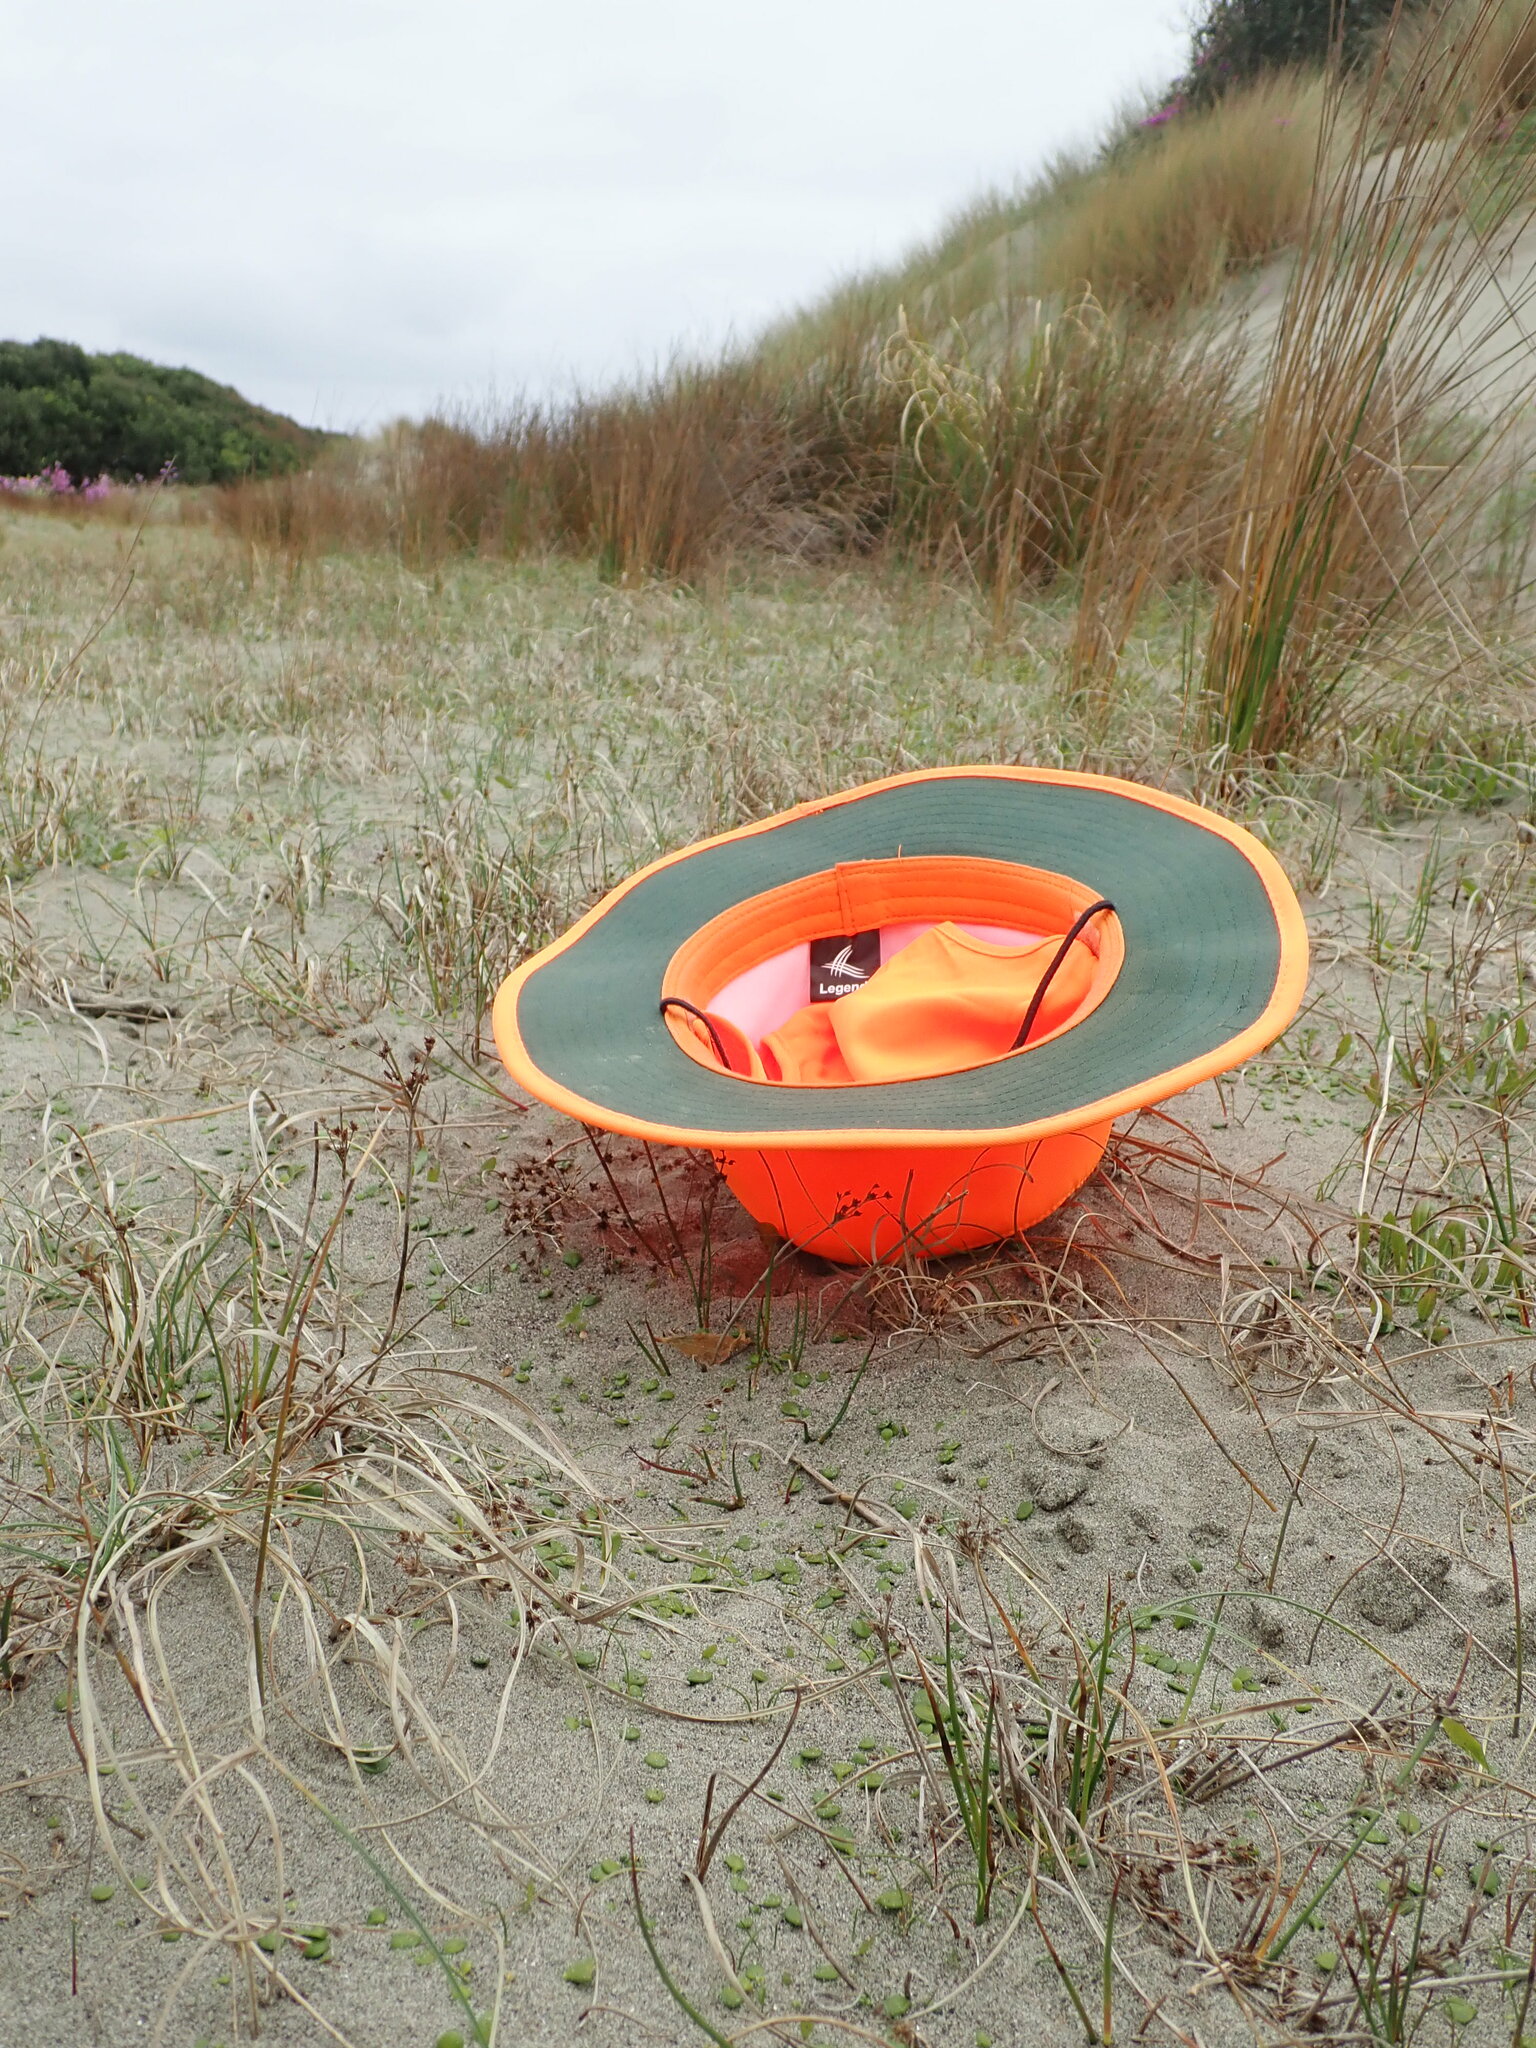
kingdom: Animalia
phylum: Arthropoda
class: Arachnida
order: Araneae
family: Lycosidae
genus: Anoteropsis
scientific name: Anoteropsis litoralis
